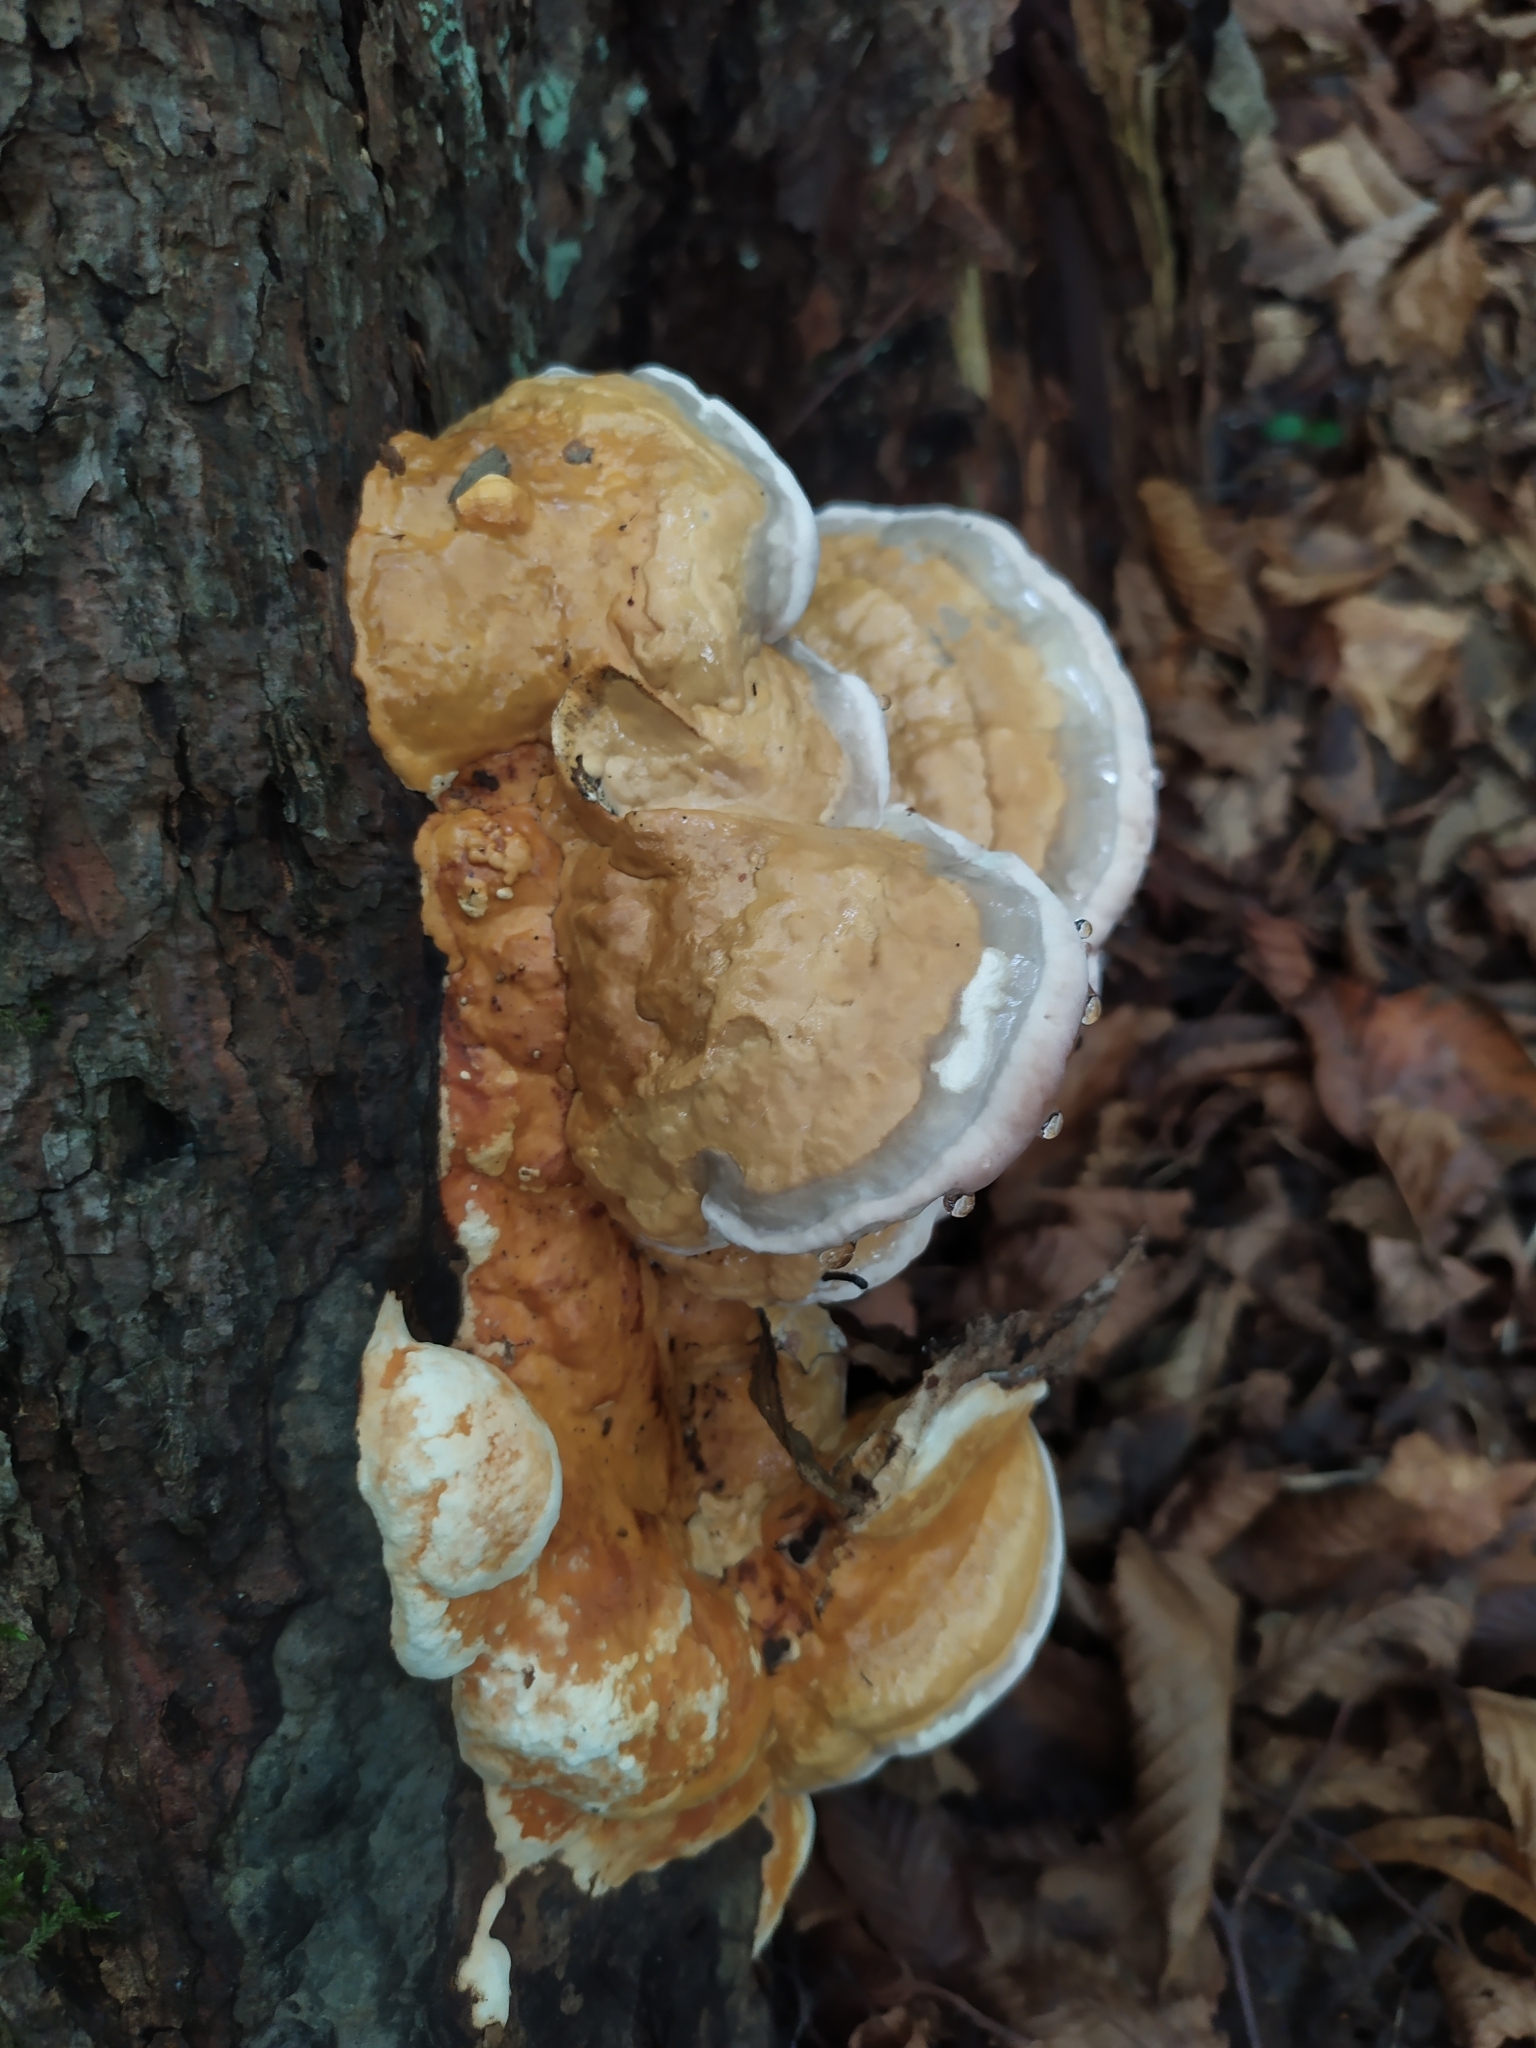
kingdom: Fungi
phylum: Basidiomycota
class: Agaricomycetes
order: Polyporales
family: Fomitopsidaceae
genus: Fomitopsis
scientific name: Fomitopsis pinicola
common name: Red-belted bracket
